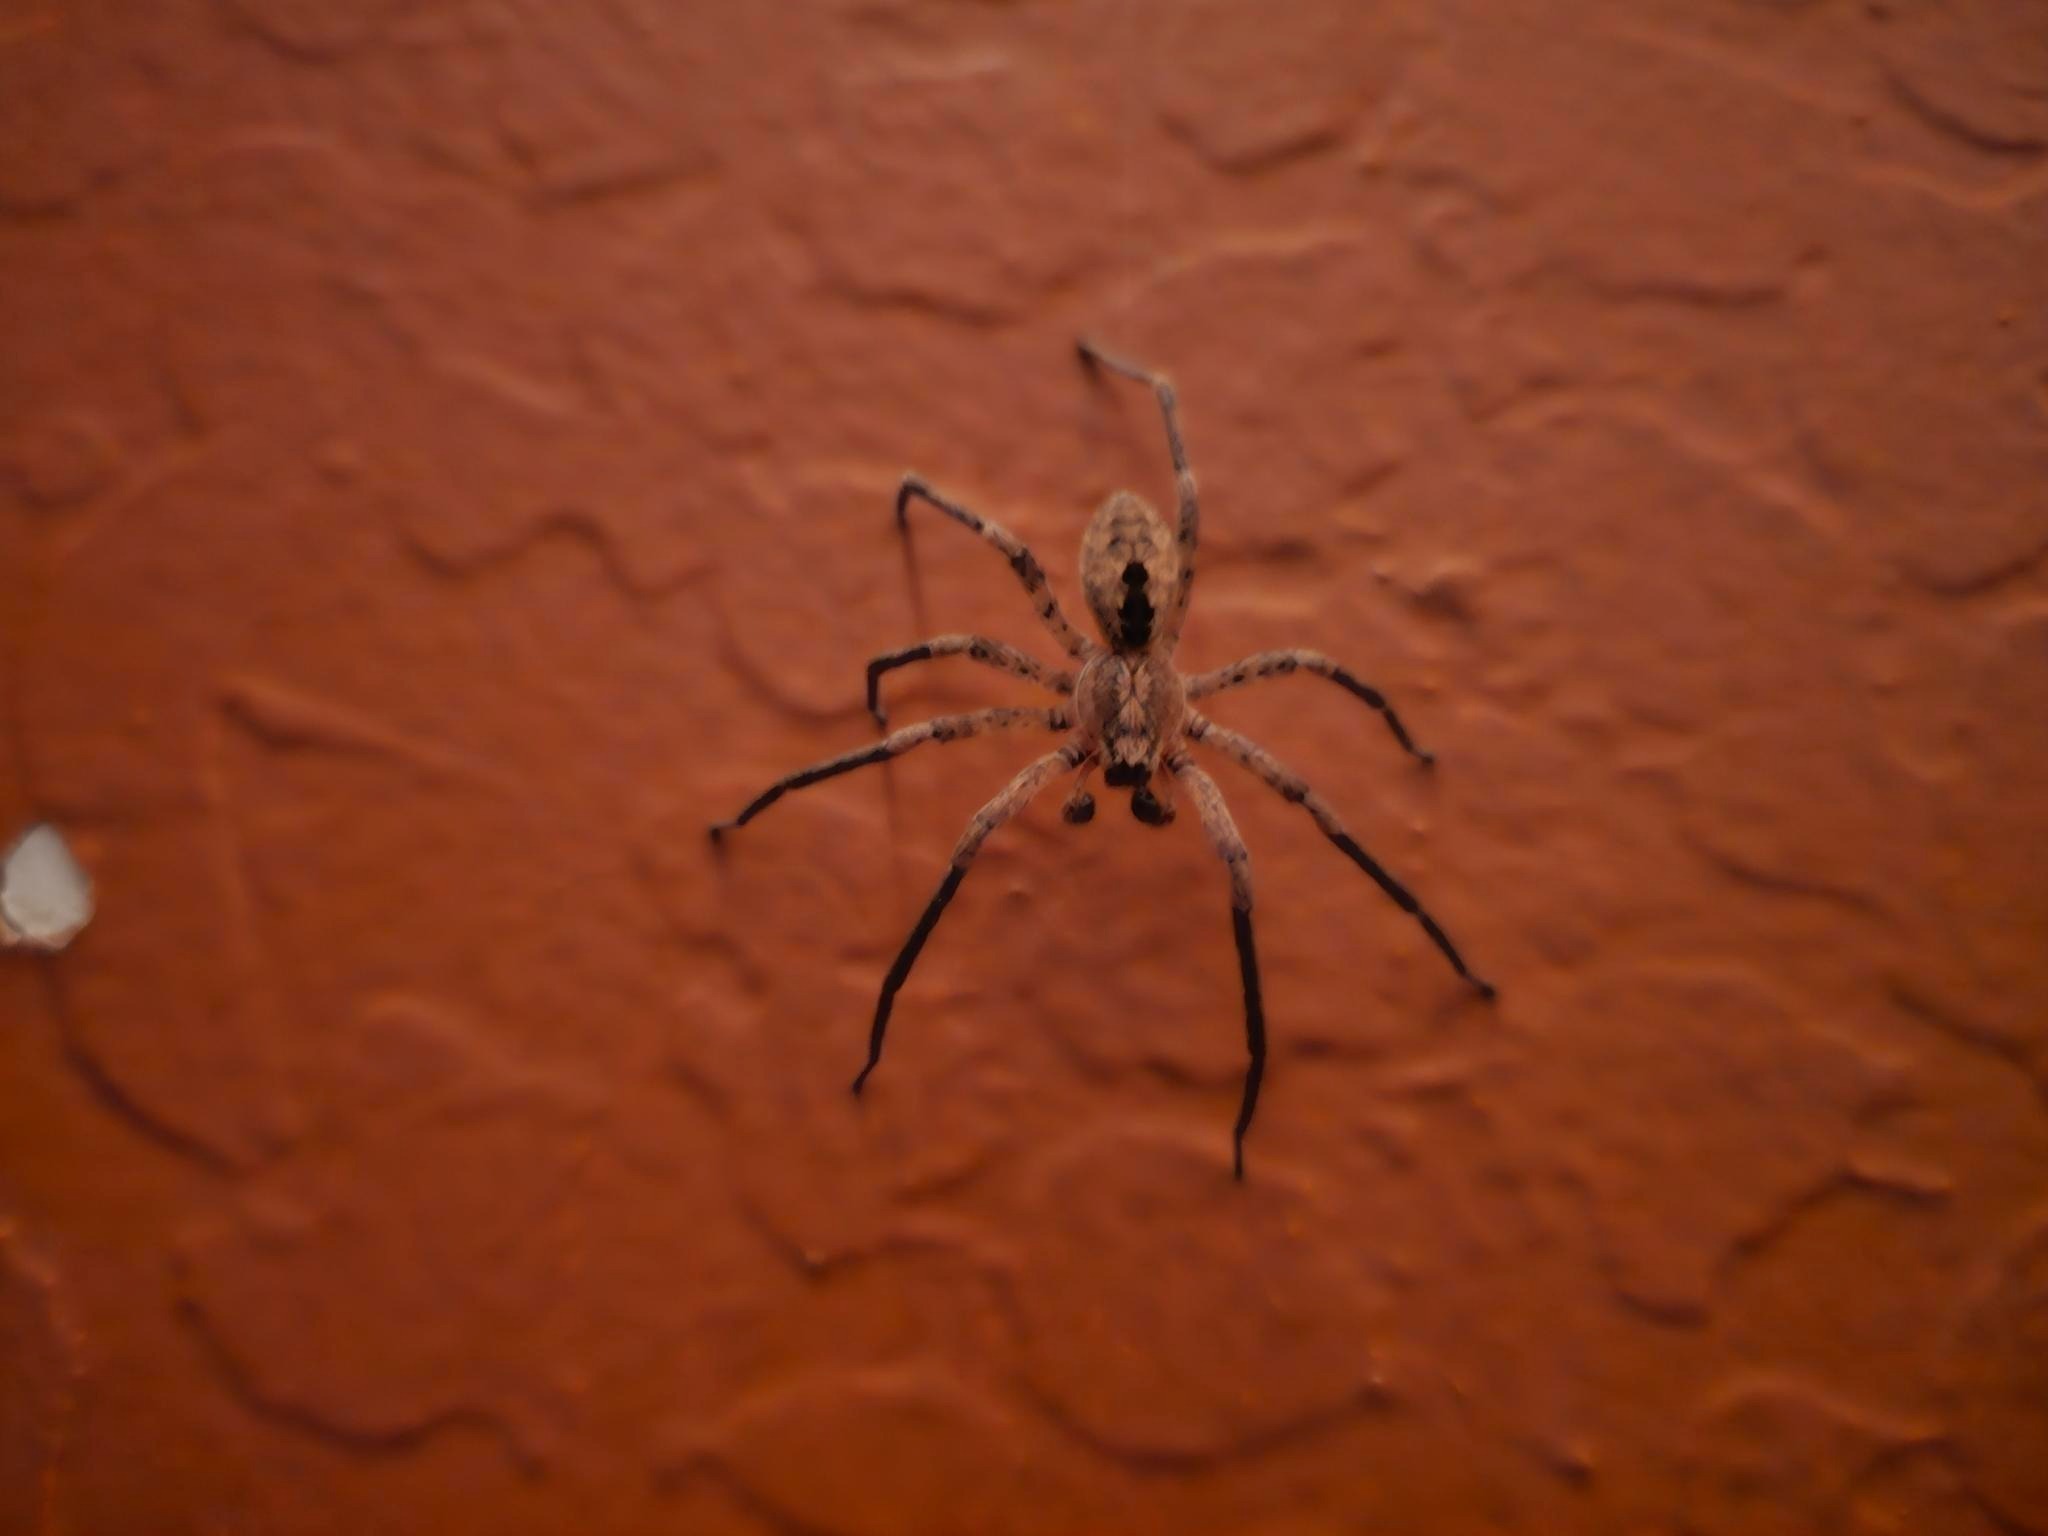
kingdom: Animalia
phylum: Arthropoda
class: Arachnida
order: Araneae
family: Zoropsidae
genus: Zoropsis
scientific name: Zoropsis spinimana
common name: Zoropsid spider
